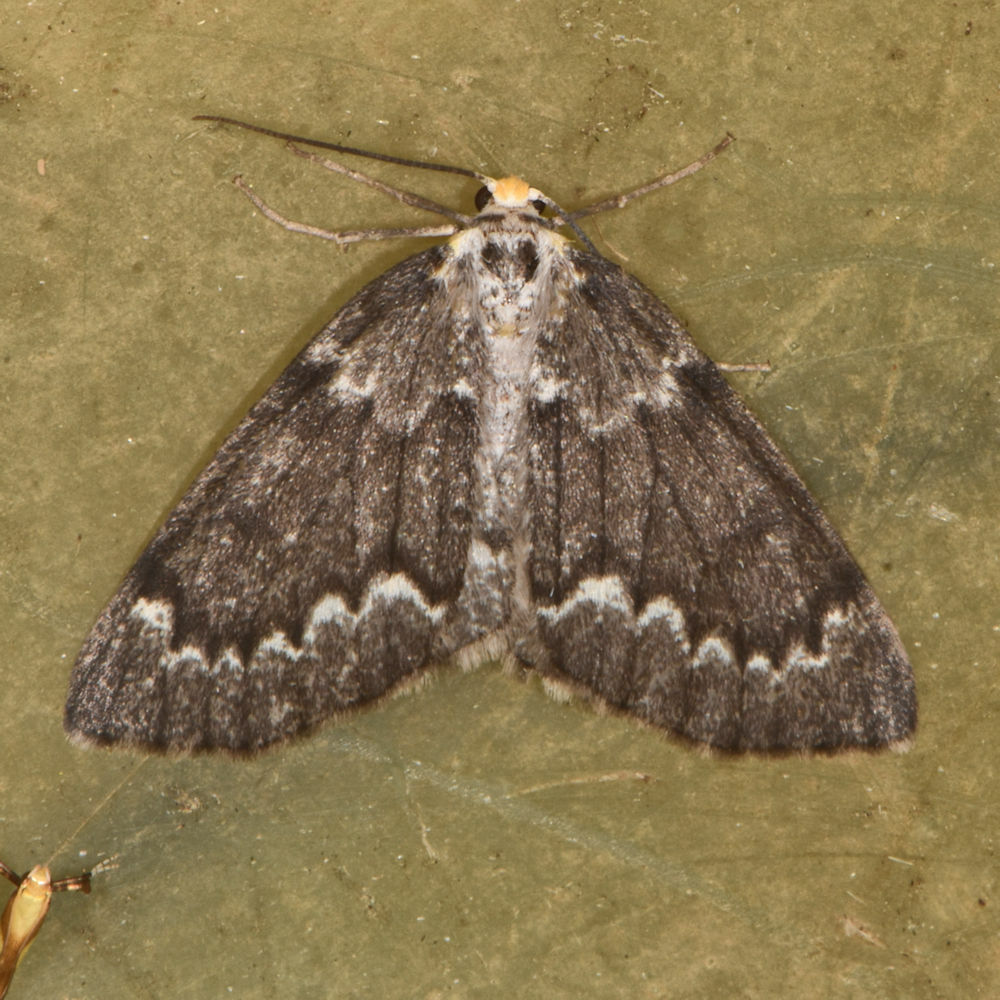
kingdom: Animalia
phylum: Arthropoda
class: Insecta
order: Lepidoptera
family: Geometridae
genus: Nepytia
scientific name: Nepytia canosaria
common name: False hemlock looper
